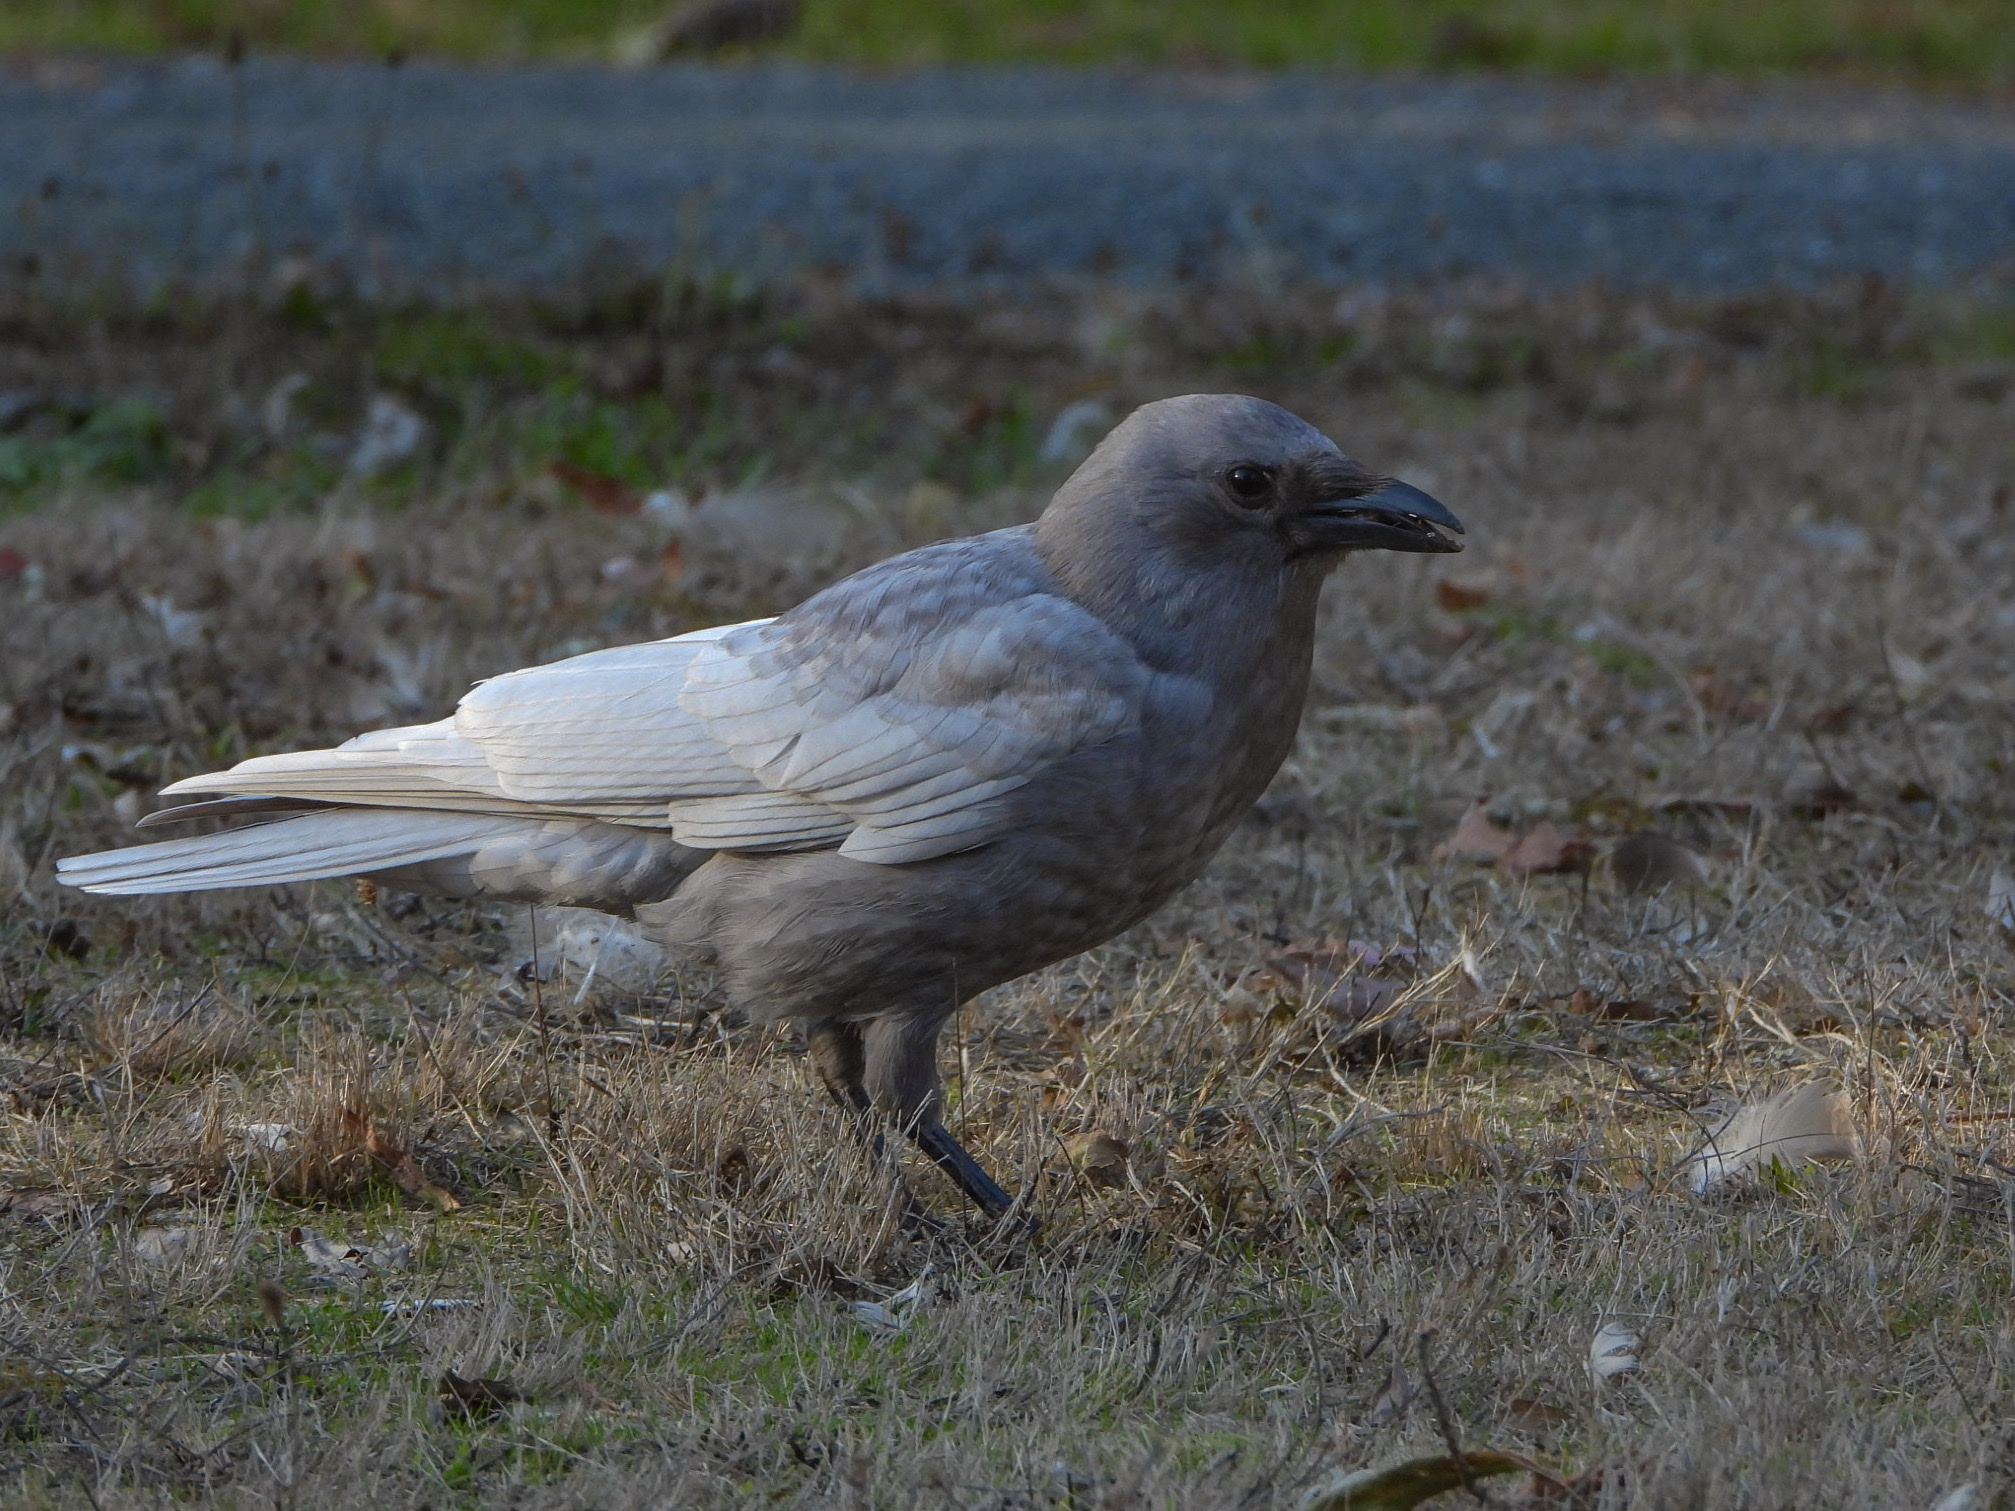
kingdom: Animalia
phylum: Chordata
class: Aves
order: Passeriformes
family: Corvidae
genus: Corvus
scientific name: Corvus brachyrhynchos
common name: American crow
